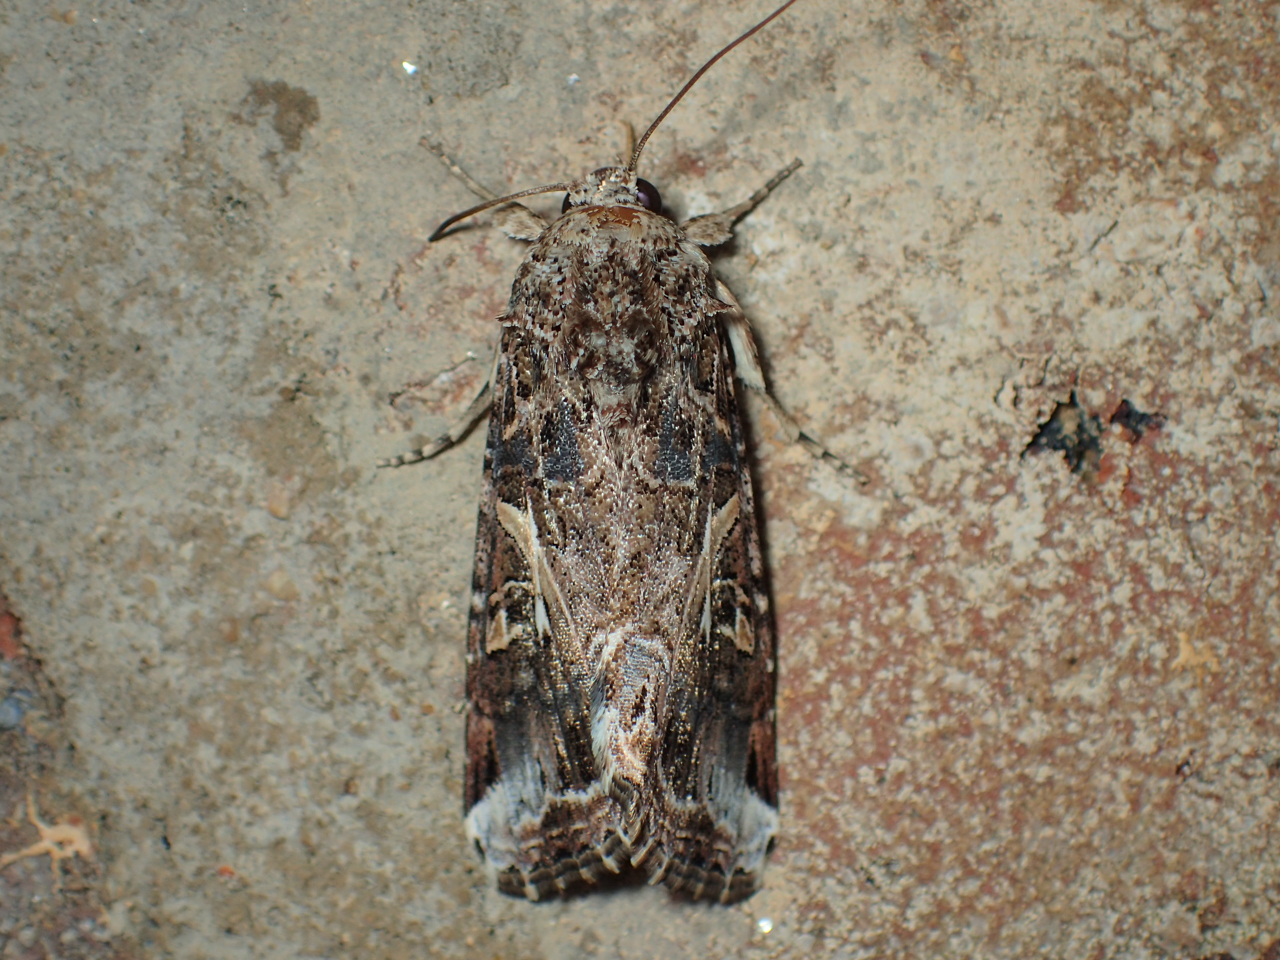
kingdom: Animalia
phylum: Arthropoda
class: Insecta
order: Lepidoptera
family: Noctuidae
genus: Spodoptera
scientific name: Spodoptera ornithogalli
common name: Yellow-striped armyworm
